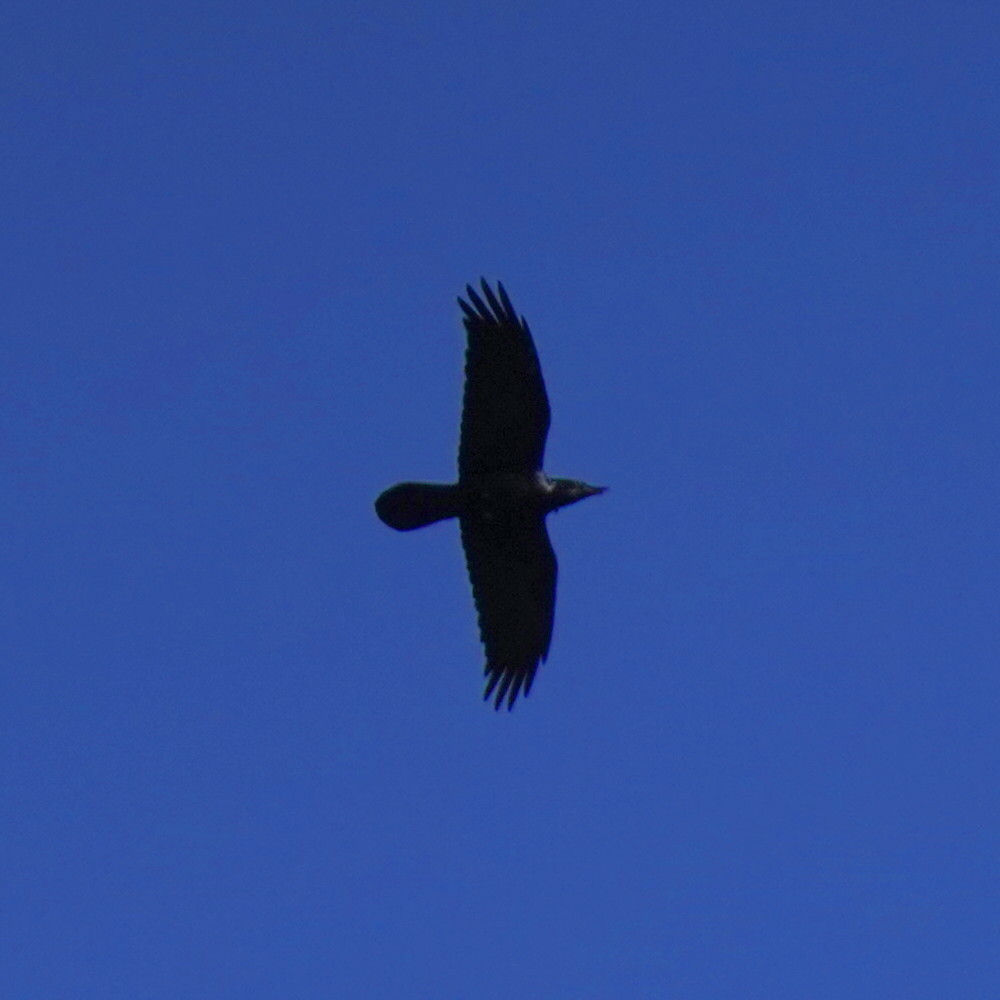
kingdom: Animalia
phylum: Chordata
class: Aves
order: Passeriformes
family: Corvidae
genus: Corvus
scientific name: Corvus corax
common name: Common raven
